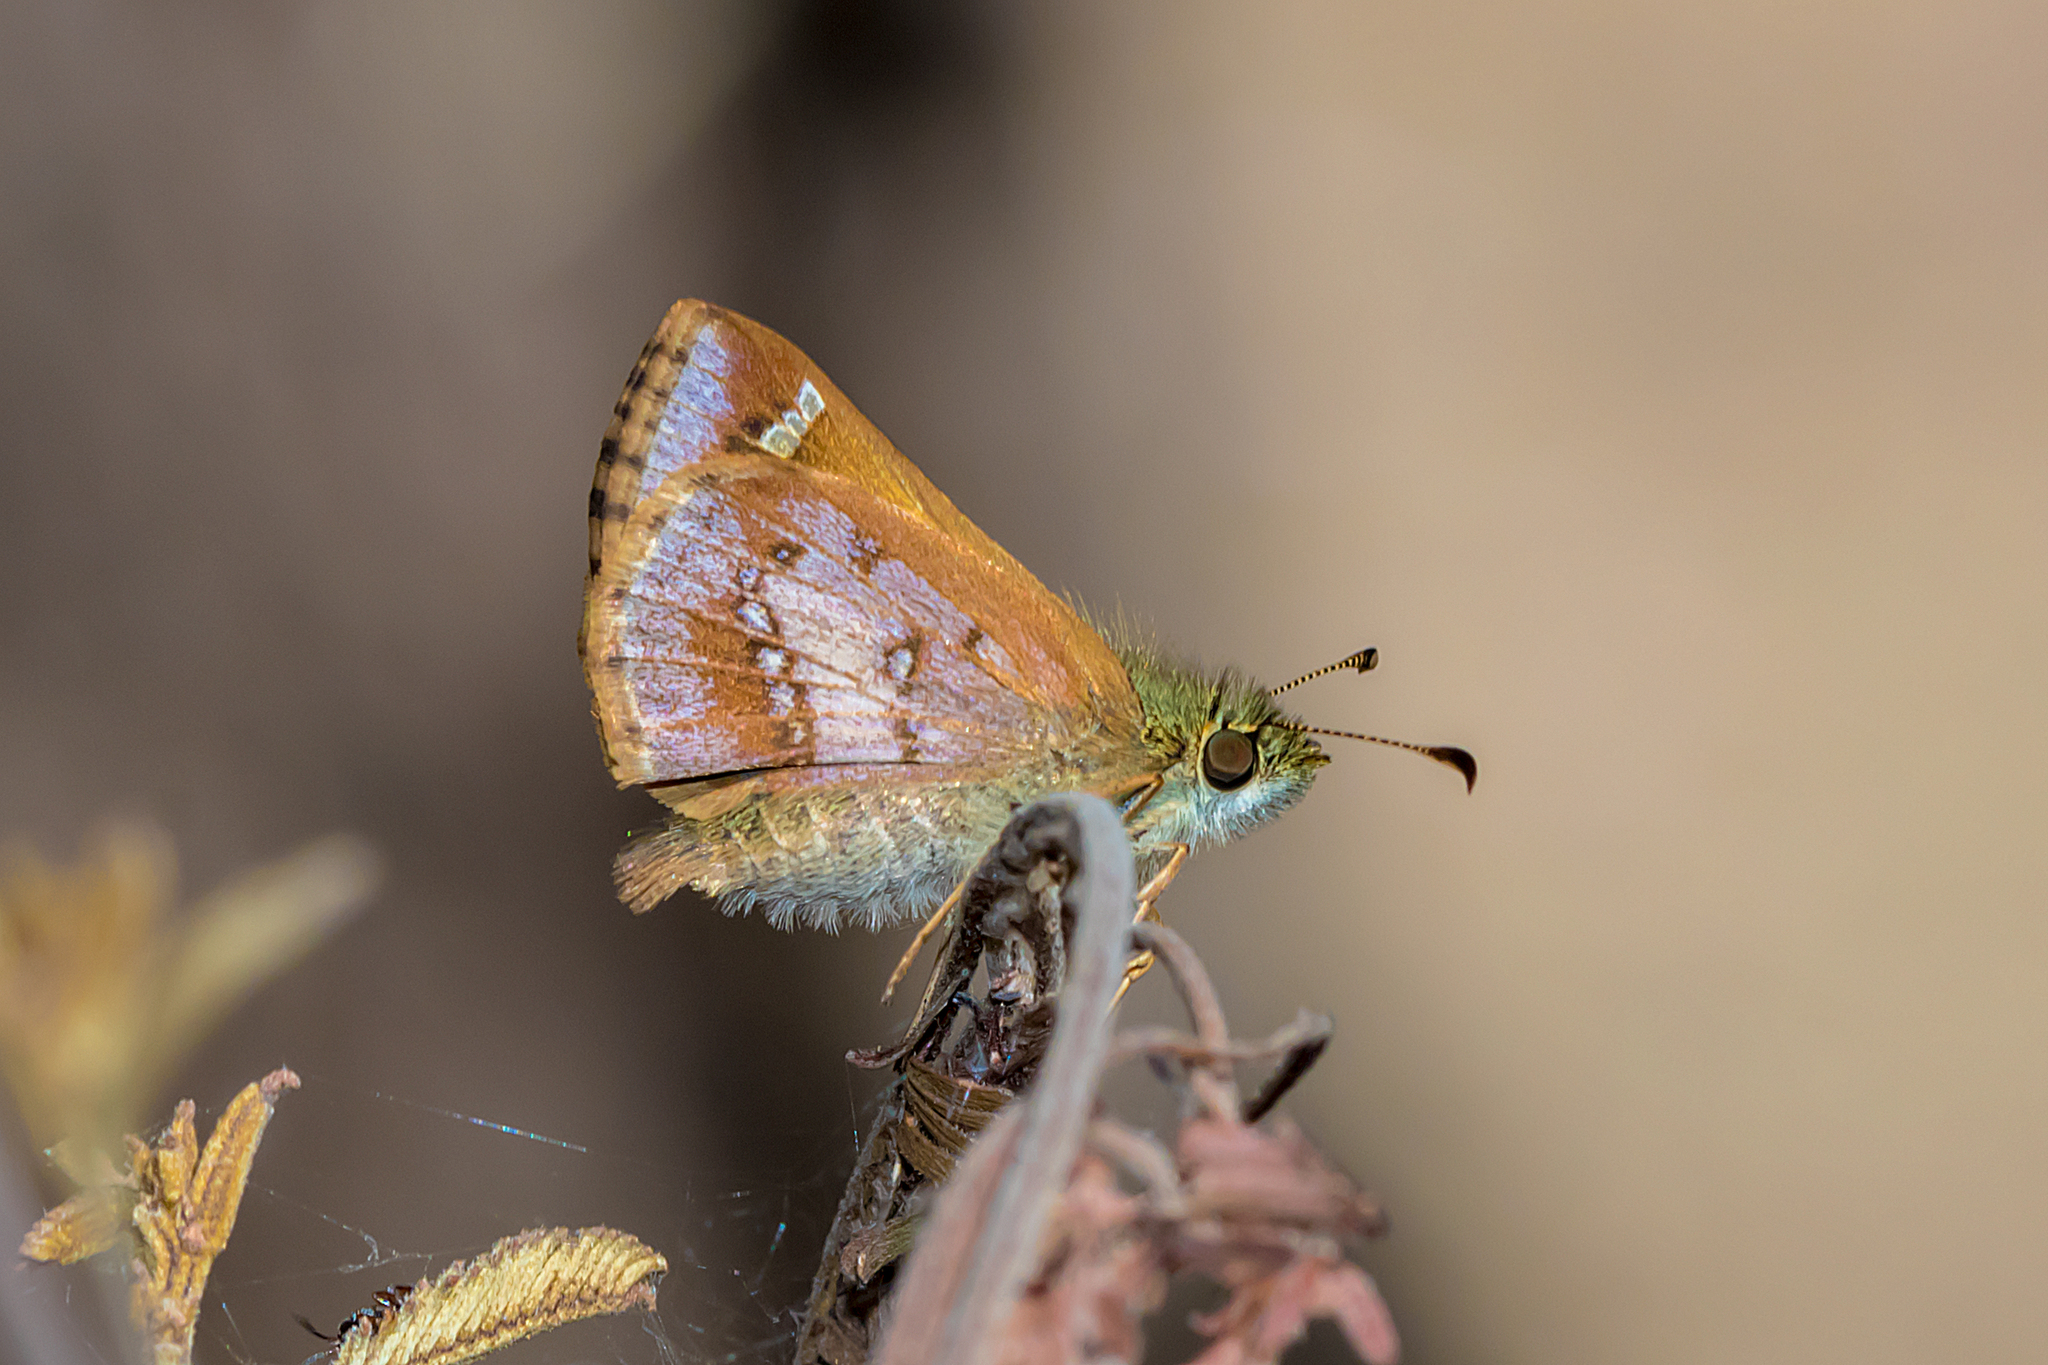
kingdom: Animalia
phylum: Arthropoda
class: Insecta
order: Lepidoptera
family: Hesperiidae
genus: Dispar
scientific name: Dispar compacta
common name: Barred skipper
